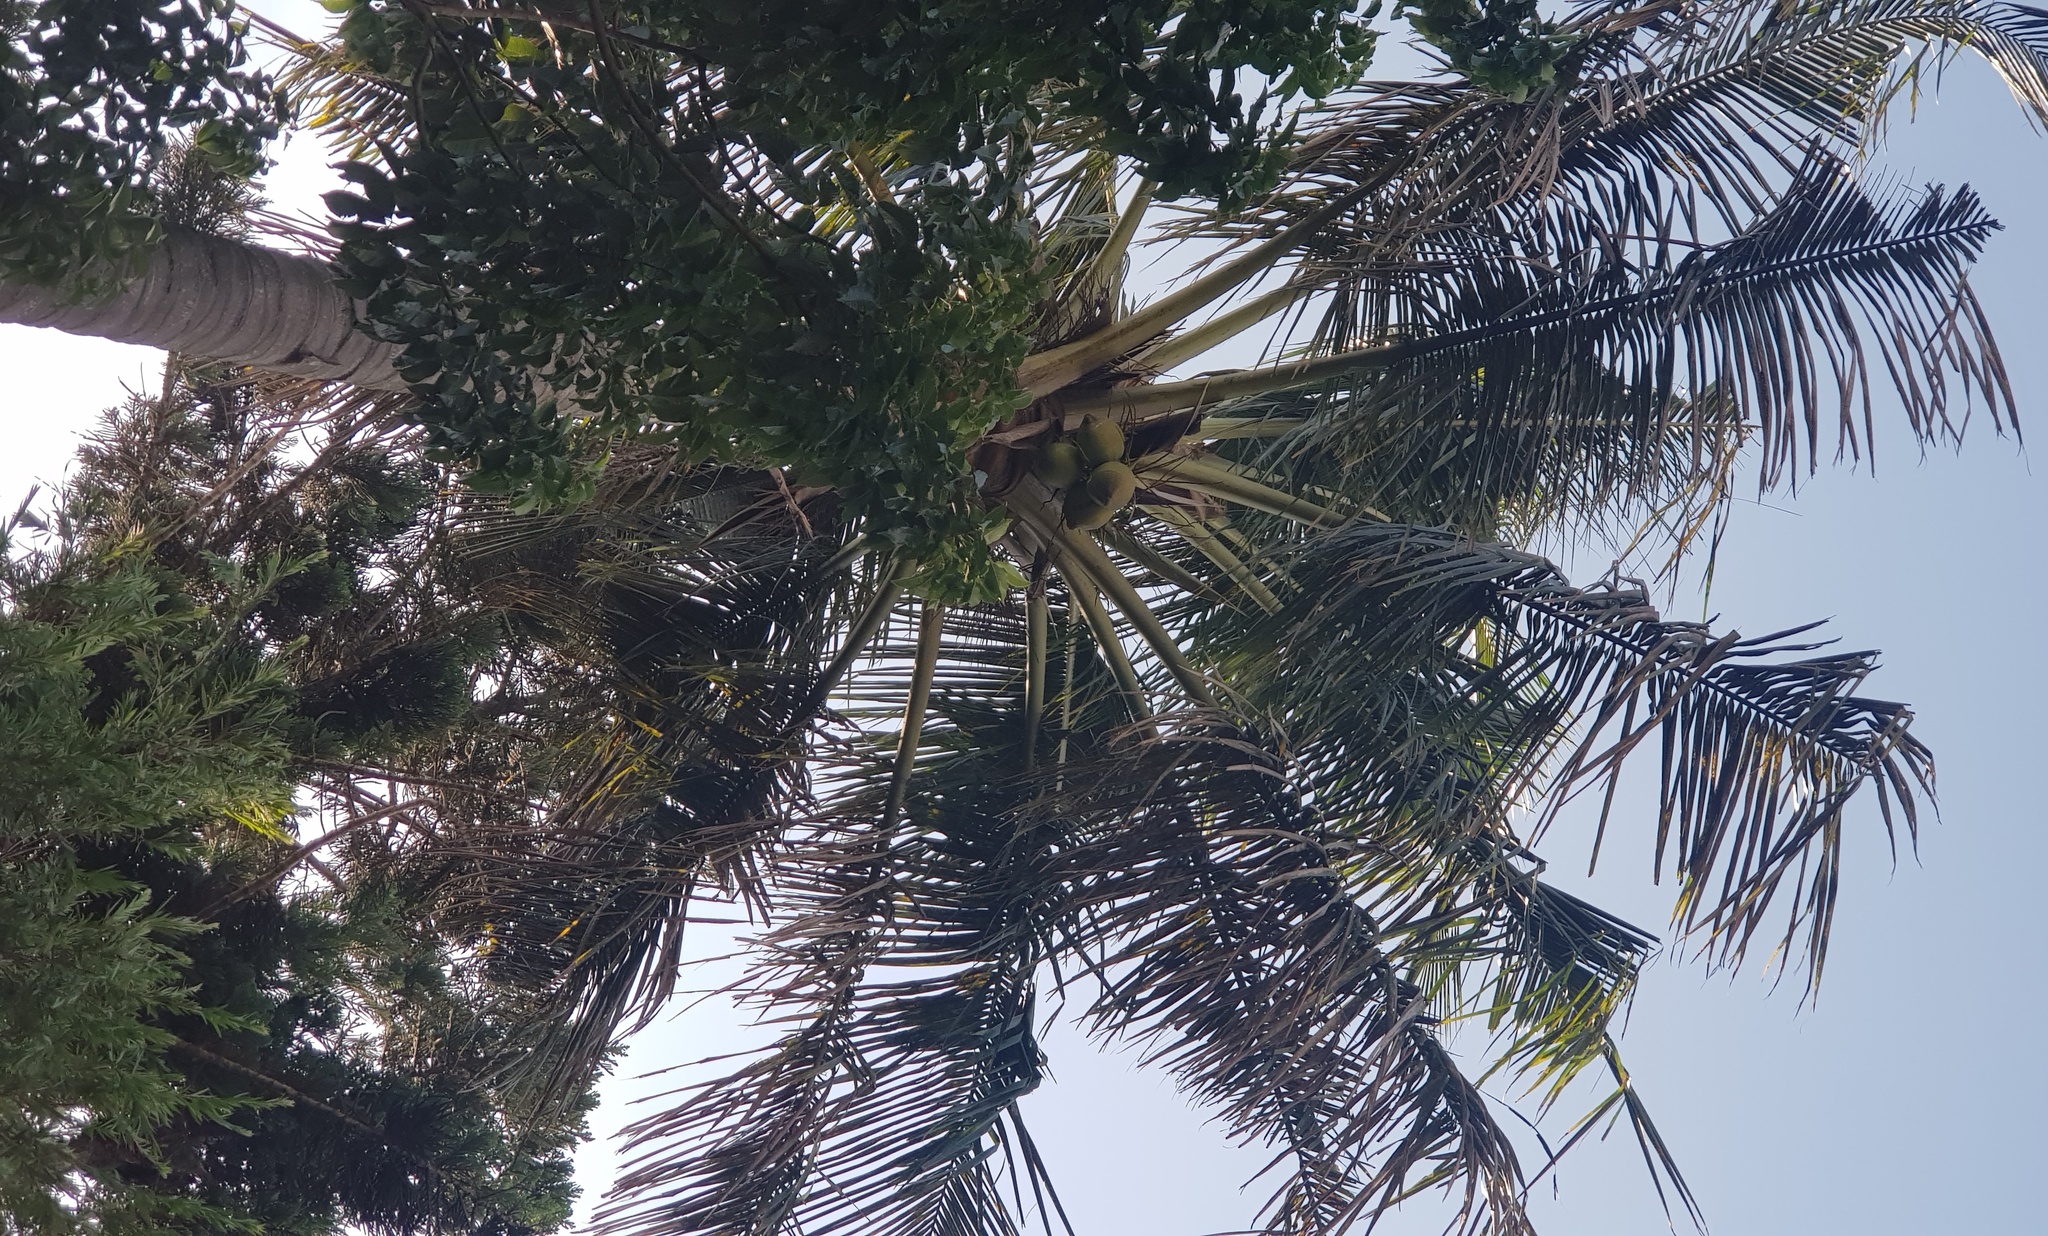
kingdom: Plantae
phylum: Tracheophyta
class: Liliopsida
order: Arecales
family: Arecaceae
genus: Cocos
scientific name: Cocos nucifera
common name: Coconut palm
